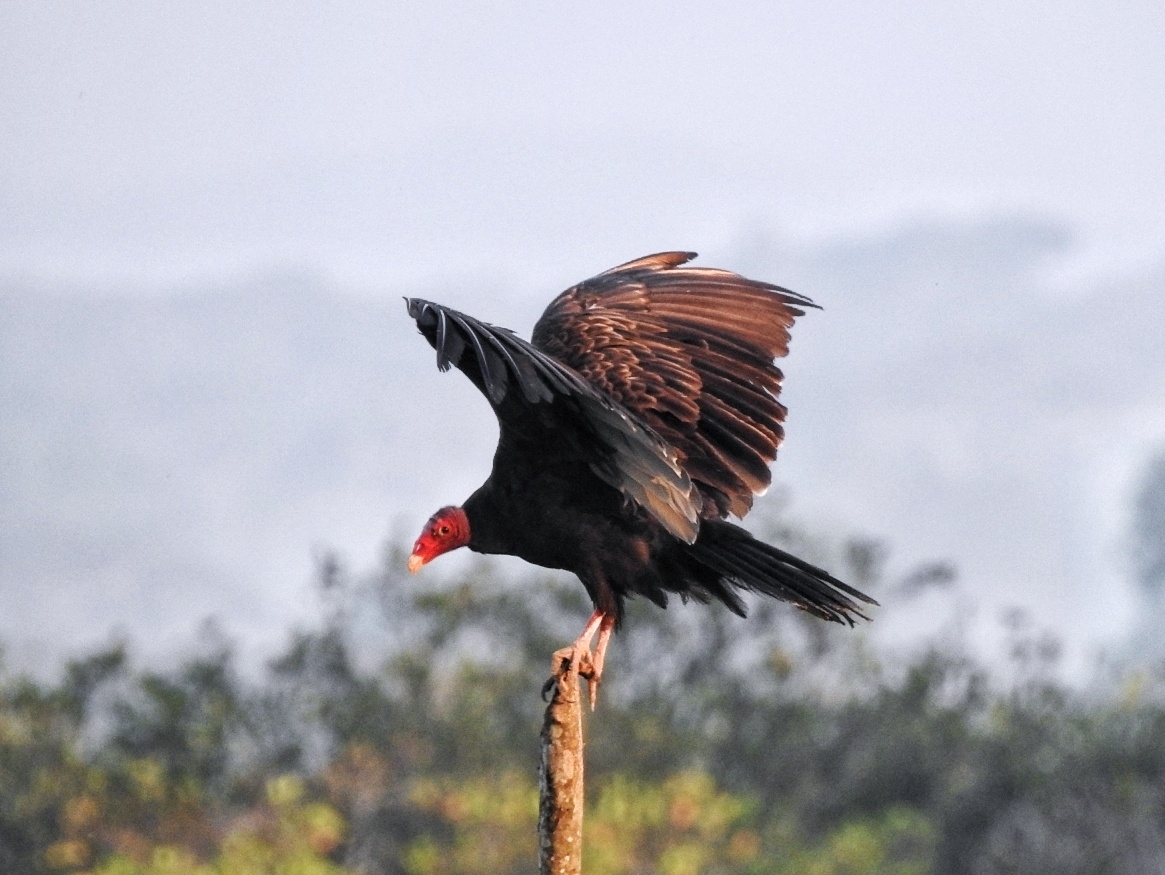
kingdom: Animalia
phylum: Chordata
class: Aves
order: Accipitriformes
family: Cathartidae
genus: Cathartes
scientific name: Cathartes aura
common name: Turkey vulture
